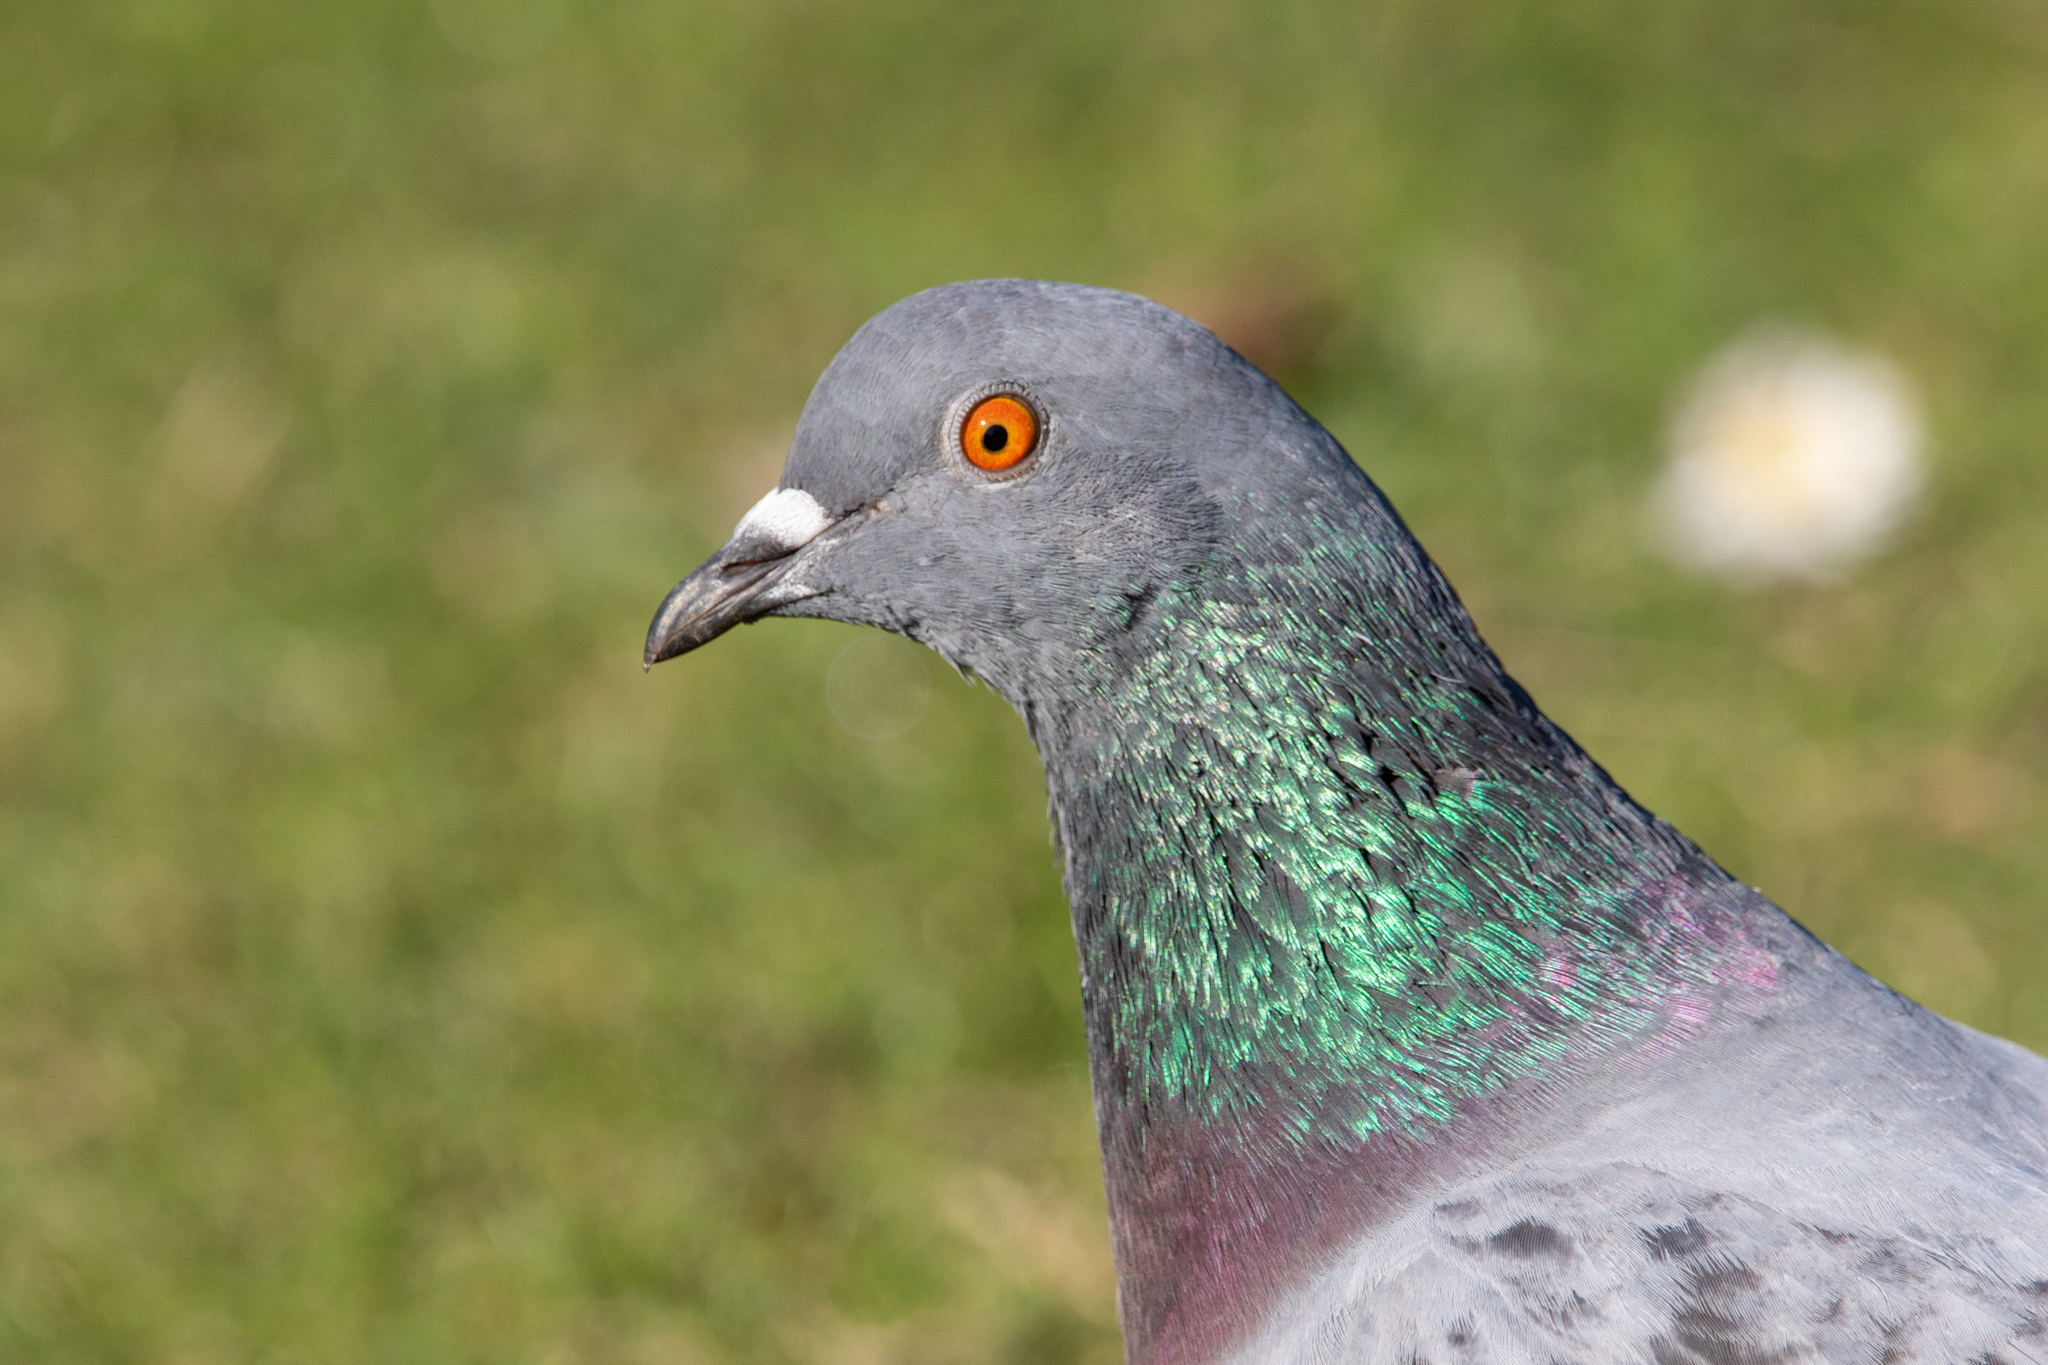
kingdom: Animalia
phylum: Chordata
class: Aves
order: Columbiformes
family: Columbidae
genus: Columba
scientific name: Columba livia
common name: Rock pigeon
